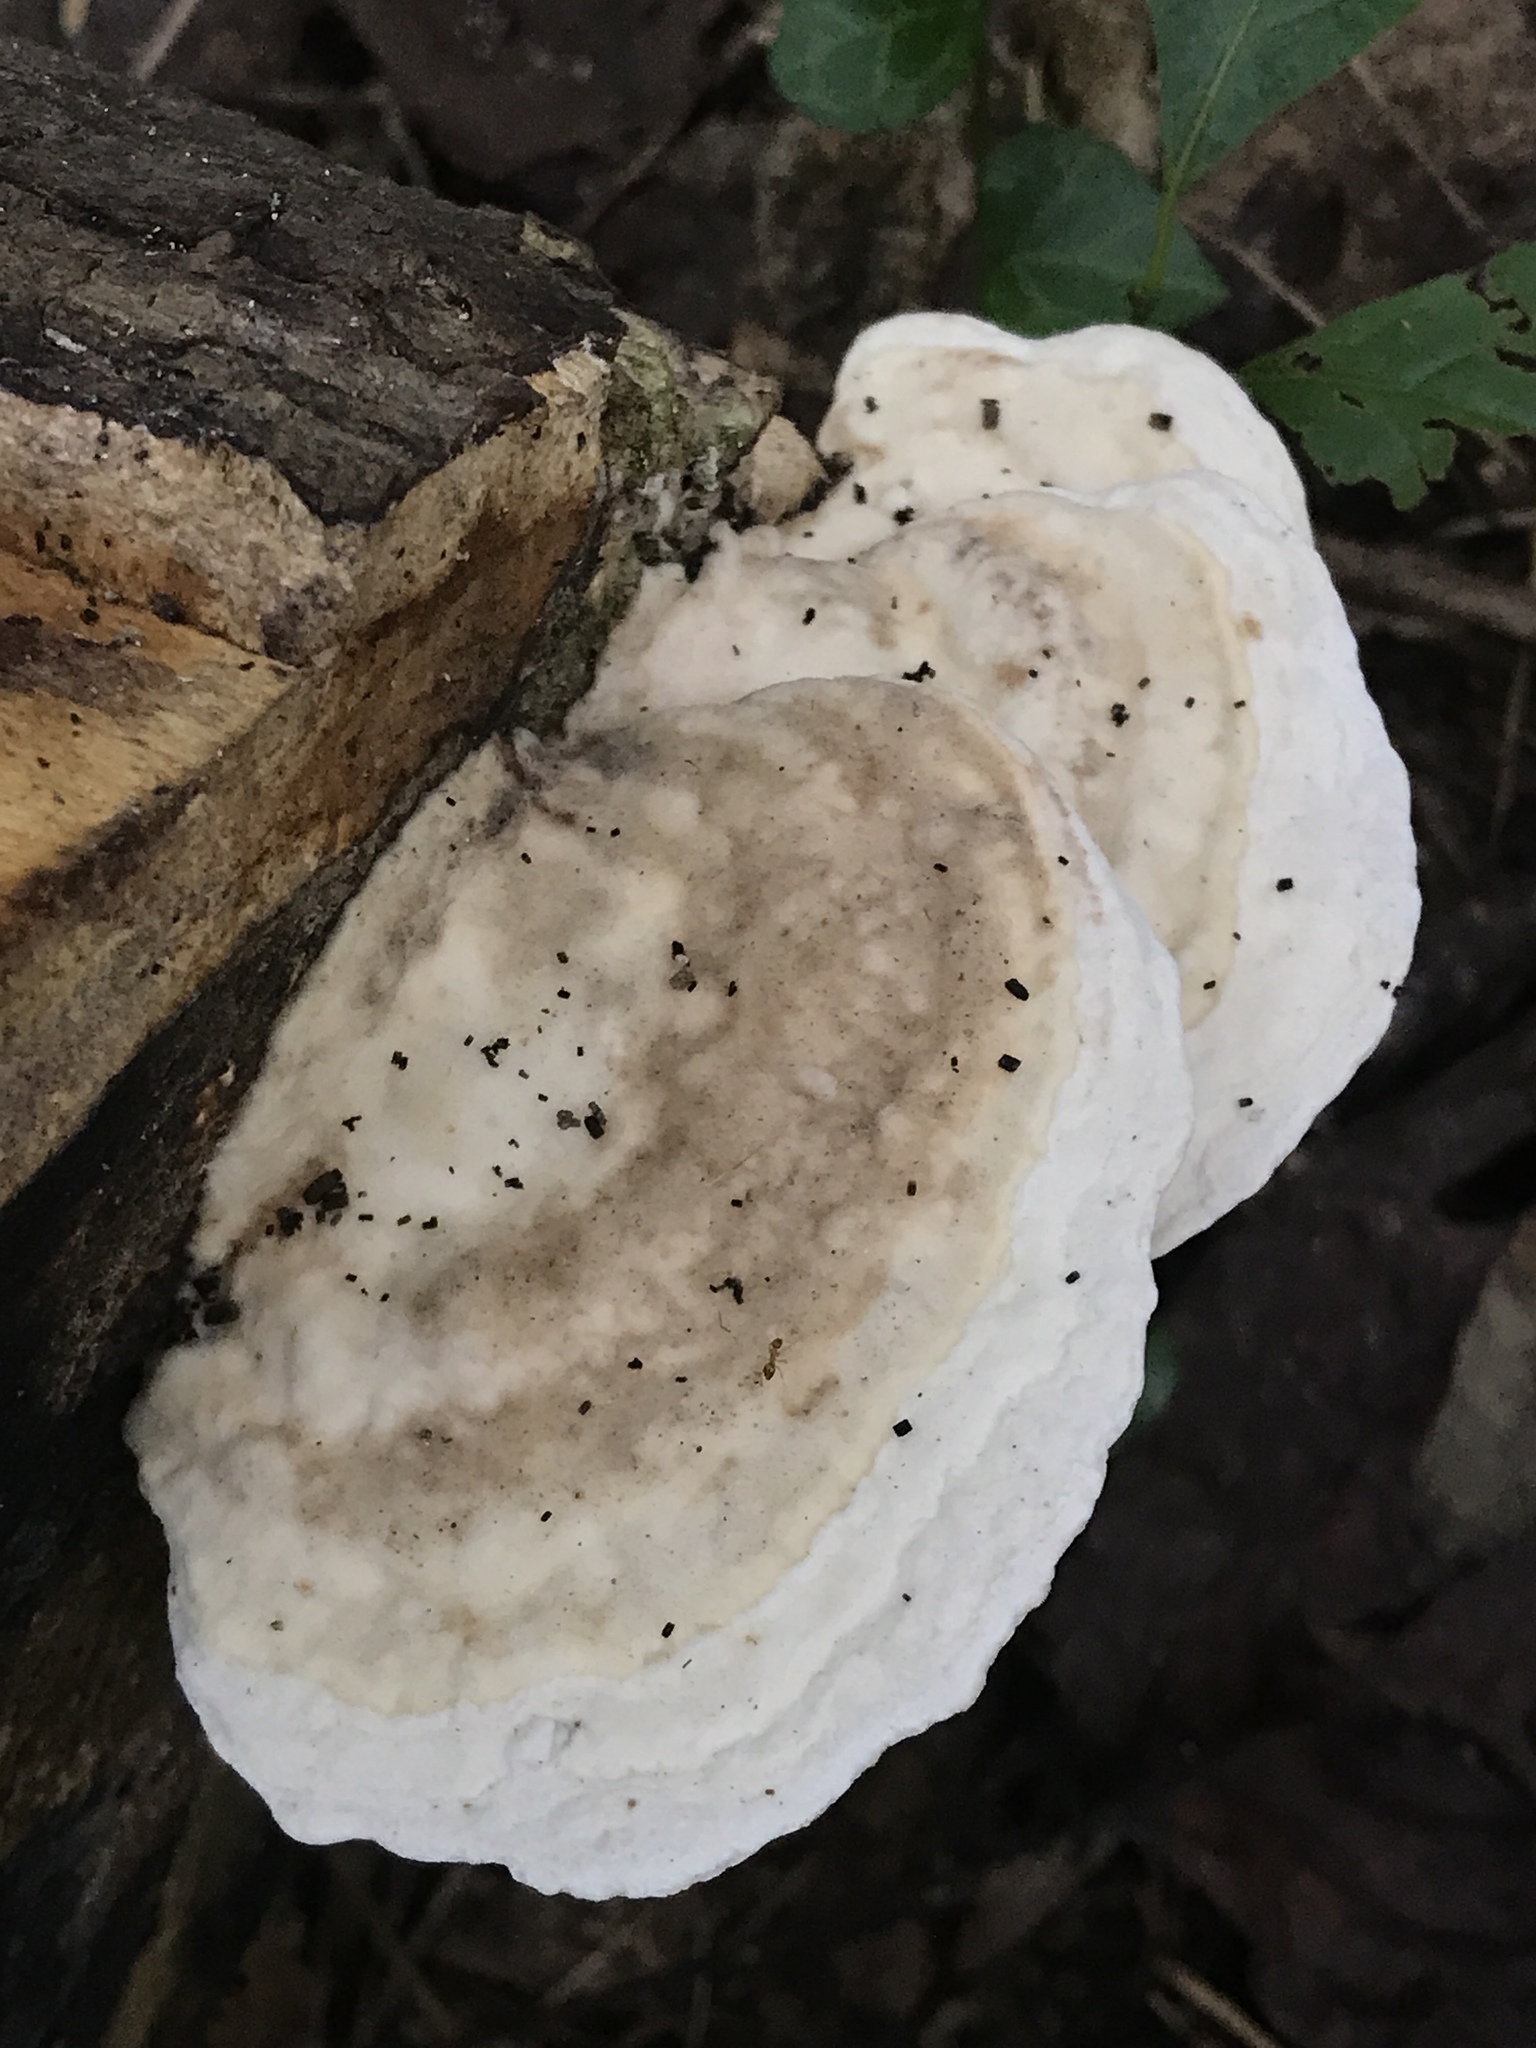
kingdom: Fungi
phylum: Basidiomycota
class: Agaricomycetes
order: Polyporales
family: Polyporaceae
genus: Trametes
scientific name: Trametes gibbosa
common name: Lumpy bracket
